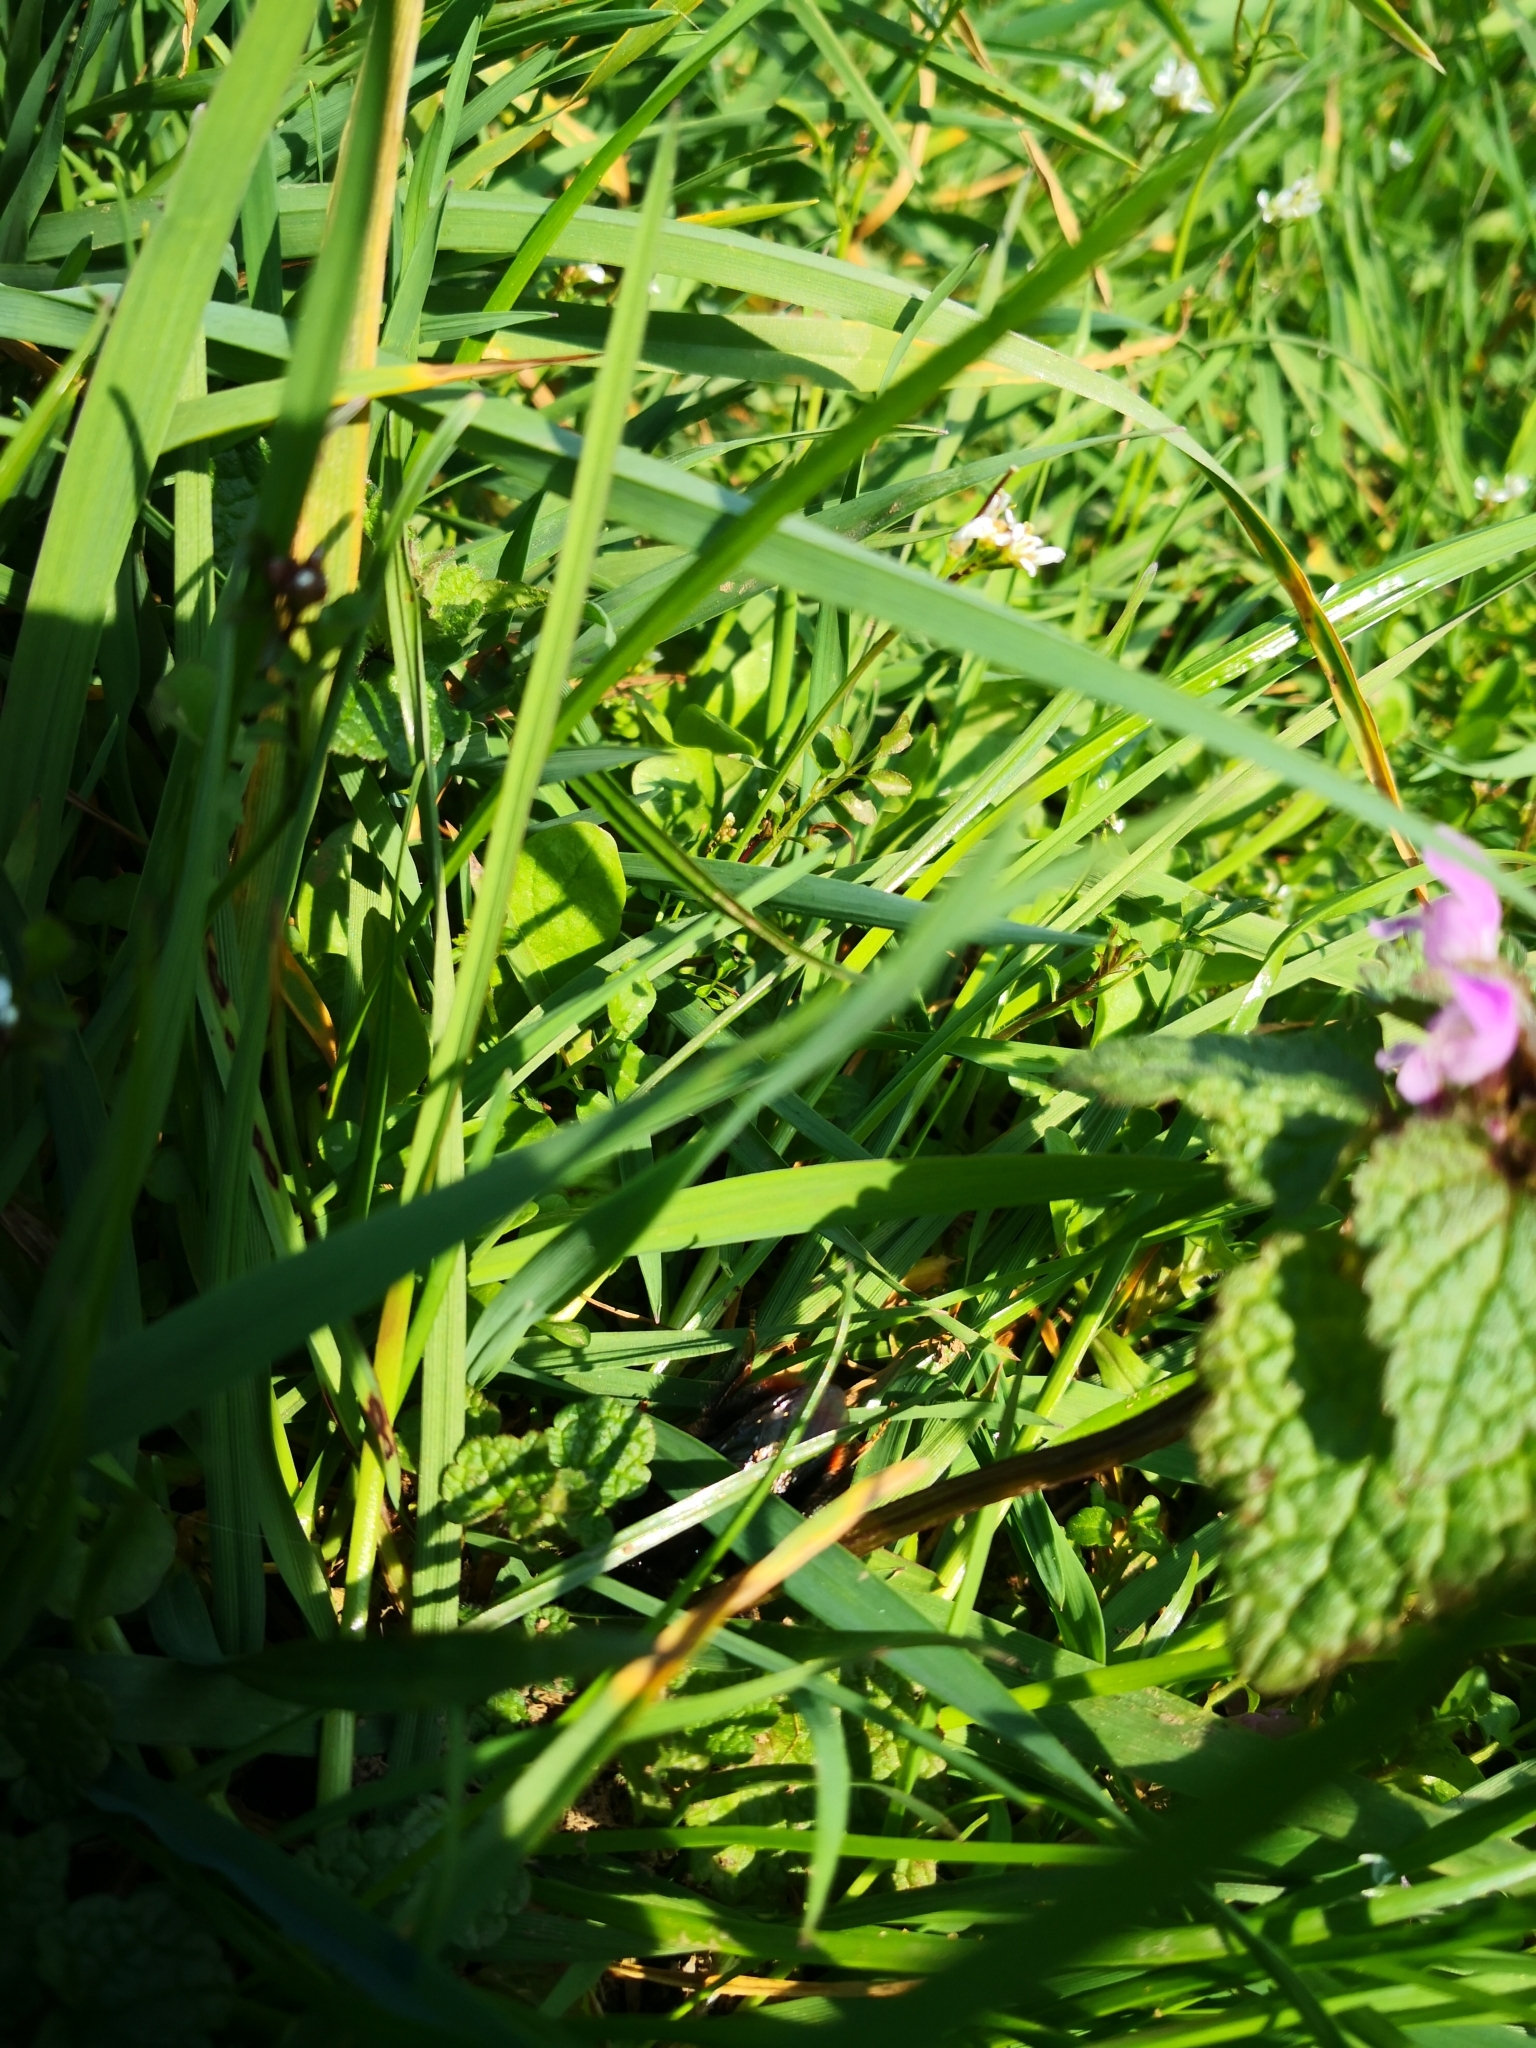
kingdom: Animalia
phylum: Arthropoda
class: Insecta
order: Hymenoptera
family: Apidae
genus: Bombus
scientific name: Bombus lapidarius
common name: Large red-tailed humble-bee
